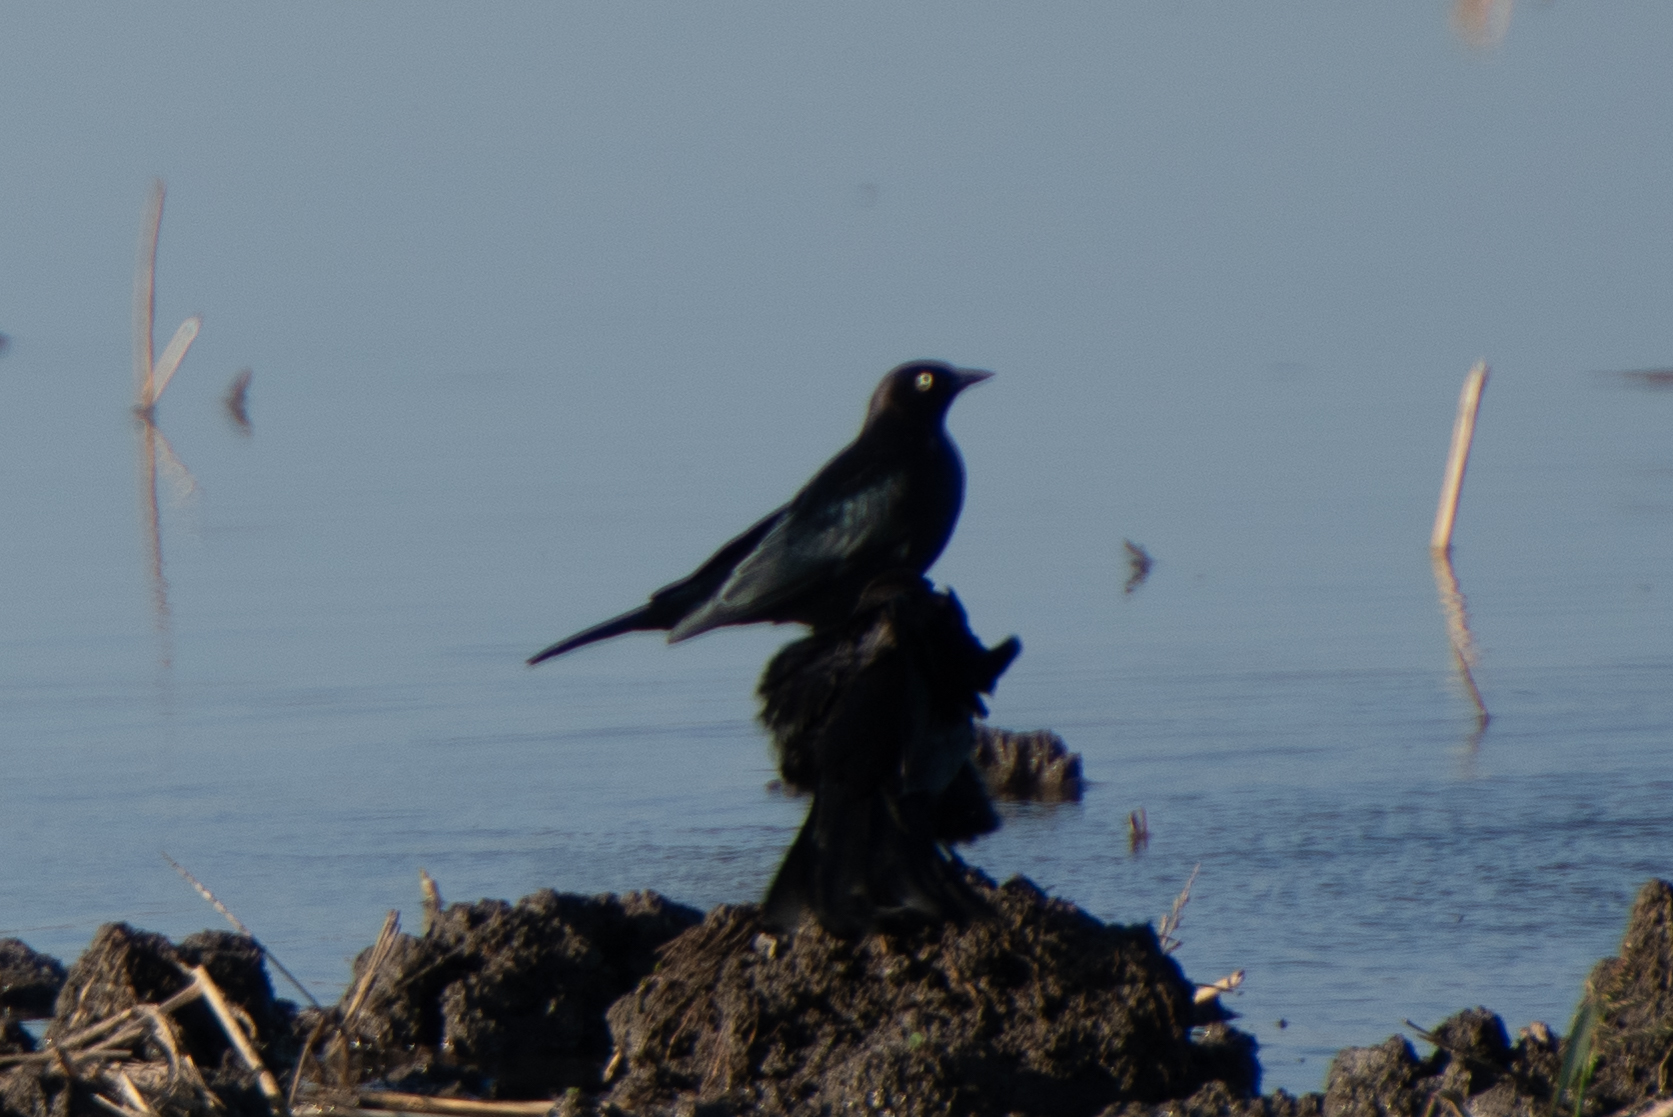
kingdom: Animalia
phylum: Chordata
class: Aves
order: Passeriformes
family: Icteridae
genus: Euphagus
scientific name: Euphagus cyanocephalus
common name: Brewer's blackbird
